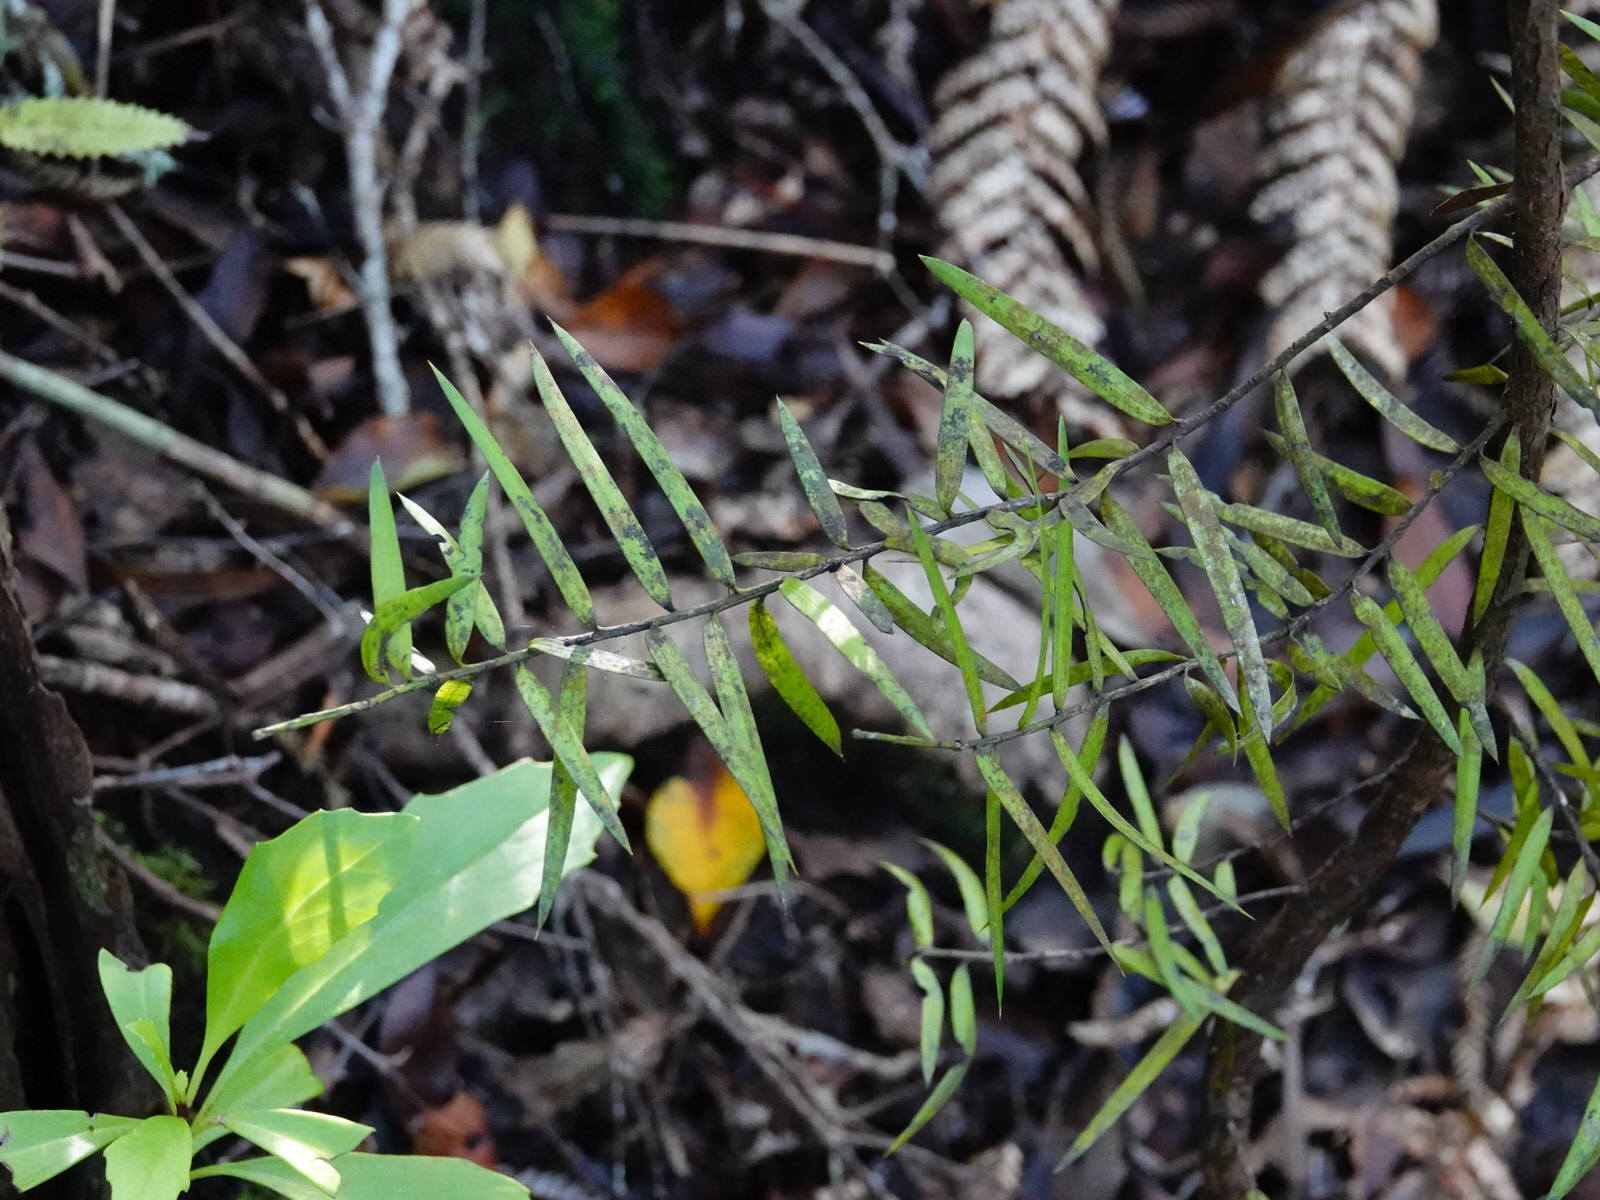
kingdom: Plantae
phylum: Tracheophyta
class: Pinopsida
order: Pinales
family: Araucariaceae
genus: Agathis
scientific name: Agathis australis
